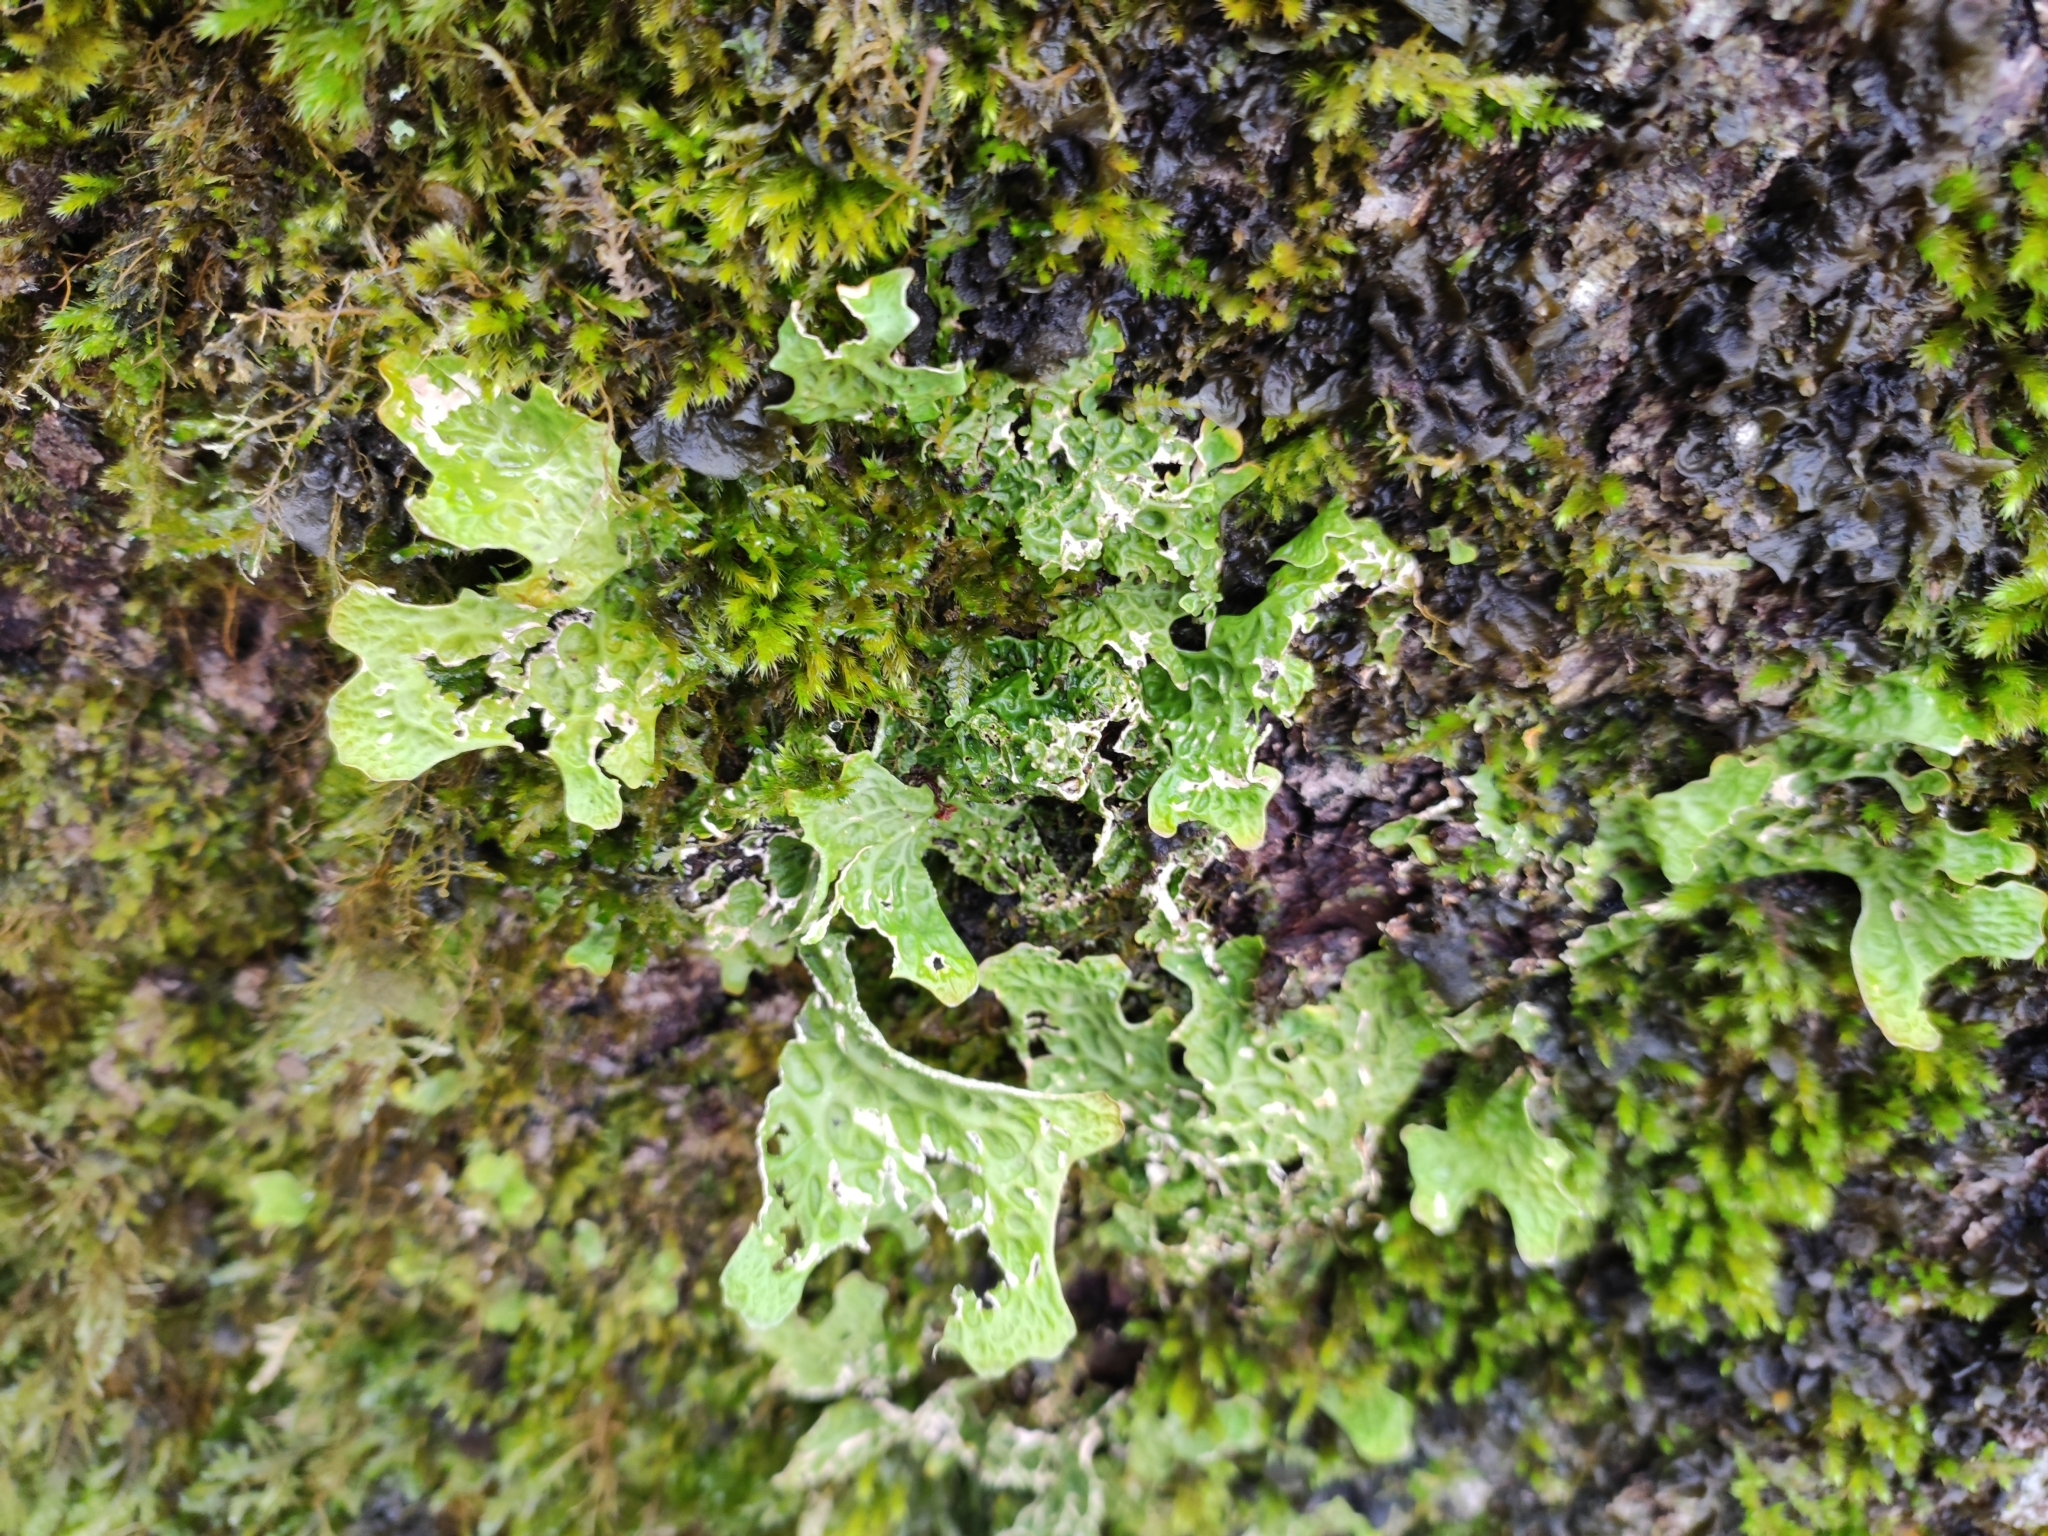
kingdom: Fungi
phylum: Ascomycota
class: Lecanoromycetes
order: Peltigerales
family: Lobariaceae
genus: Lobaria
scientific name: Lobaria pulmonaria
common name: Lungwort
